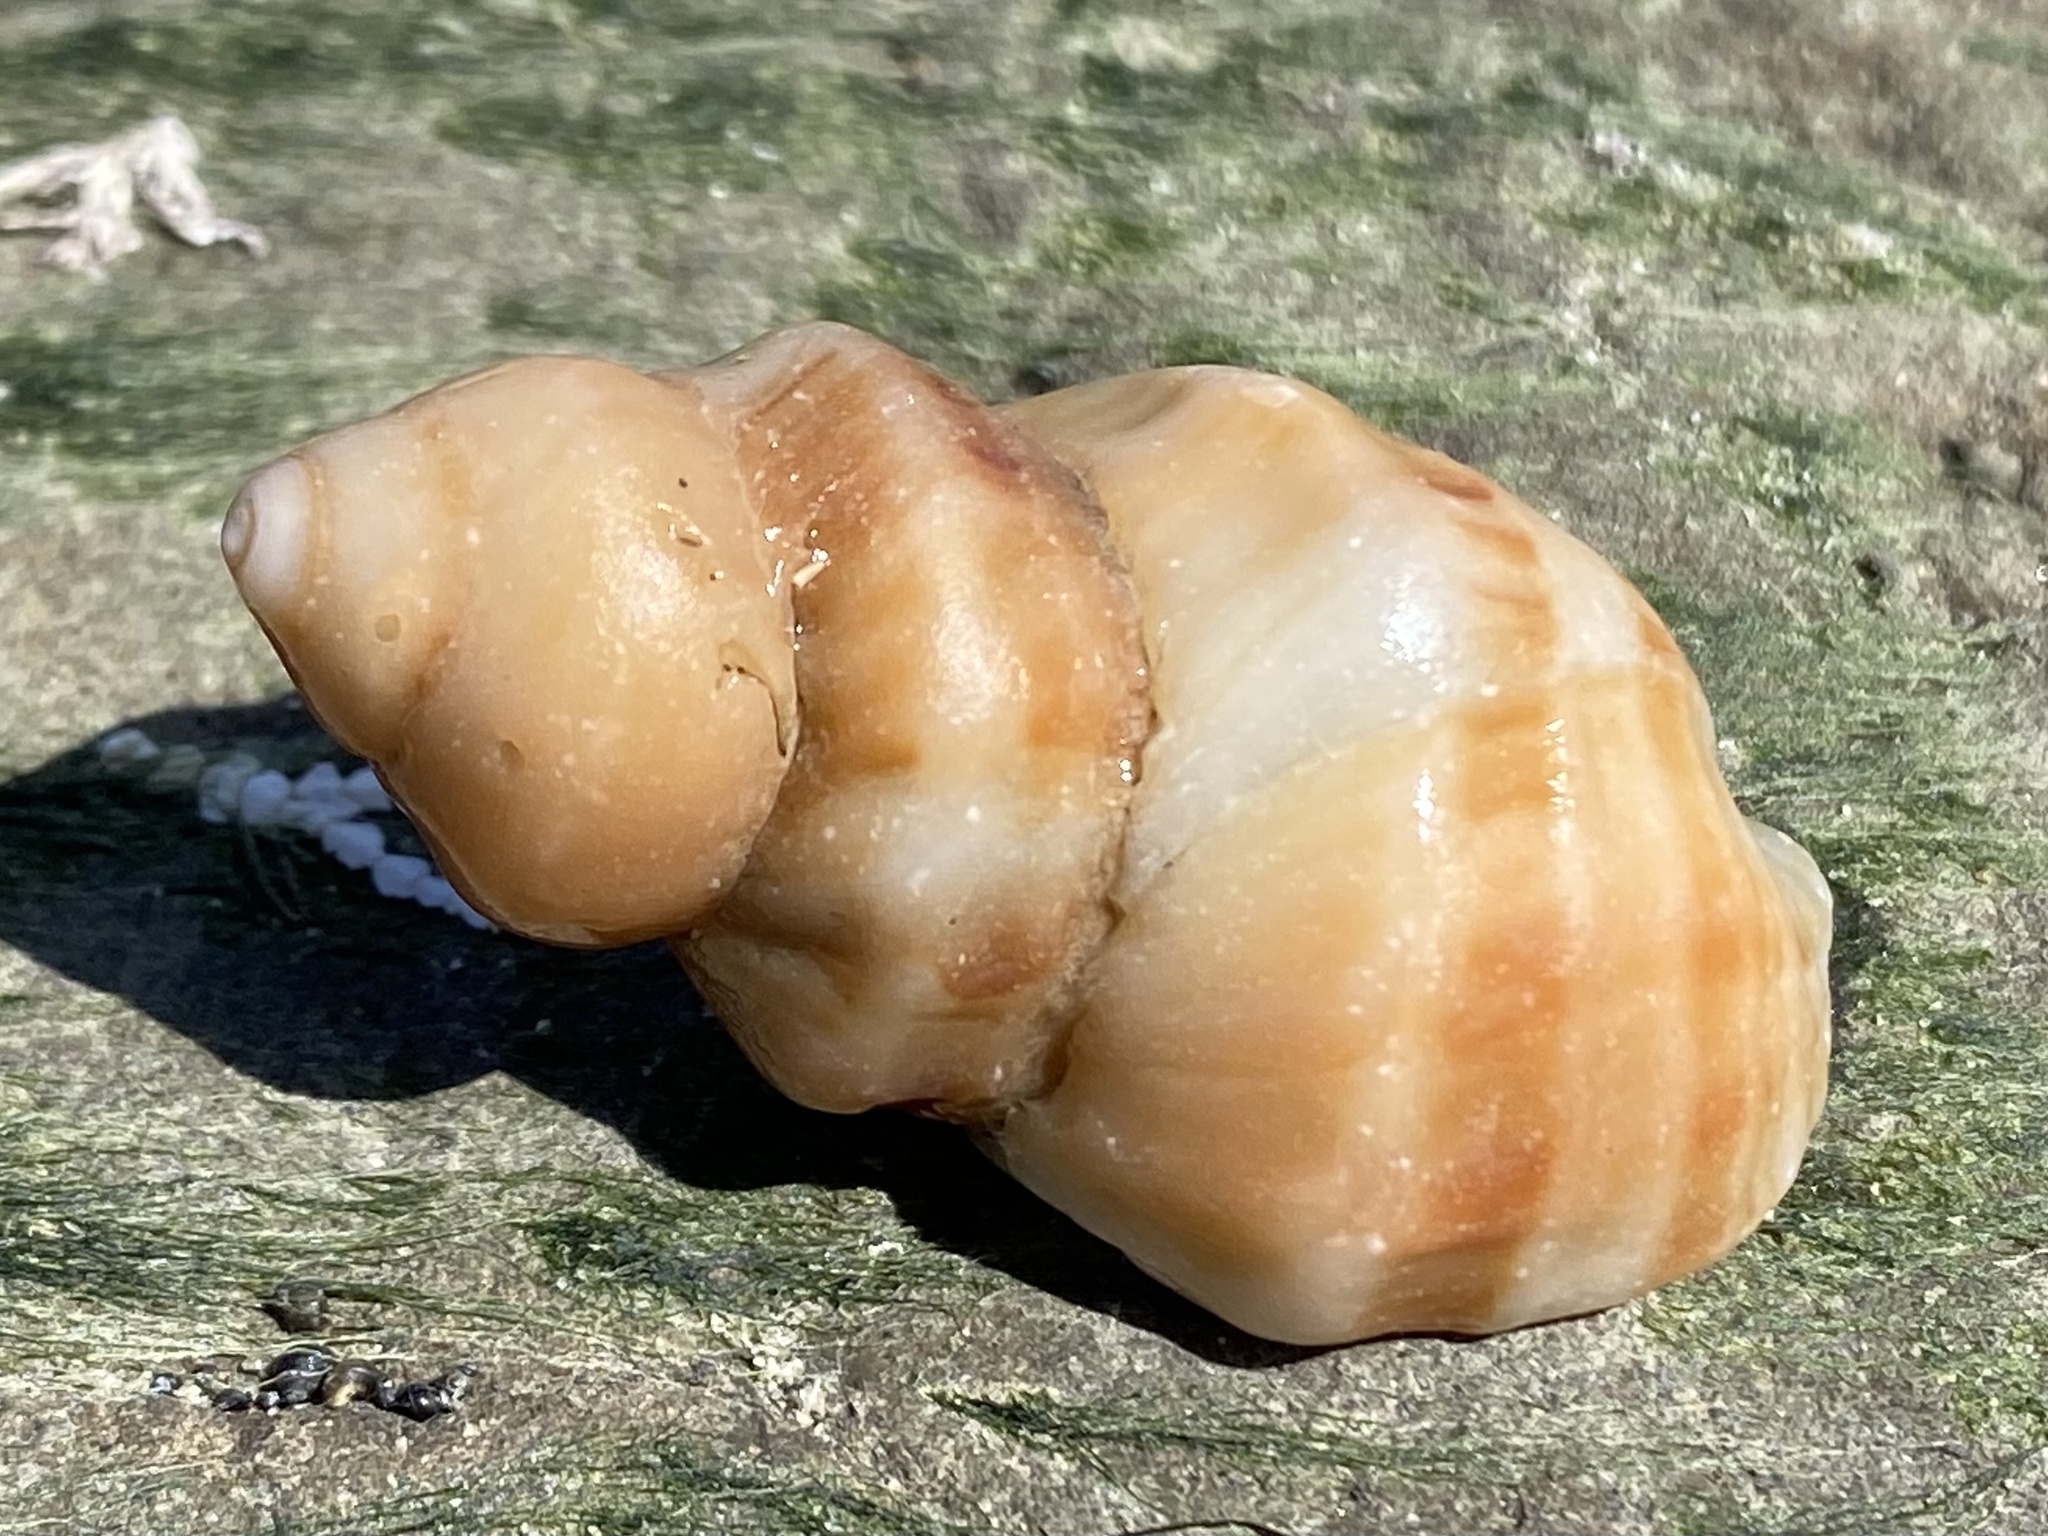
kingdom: Animalia
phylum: Mollusca
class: Gastropoda
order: Neogastropoda
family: Muricidae
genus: Nucella
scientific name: Nucella lamellosa
